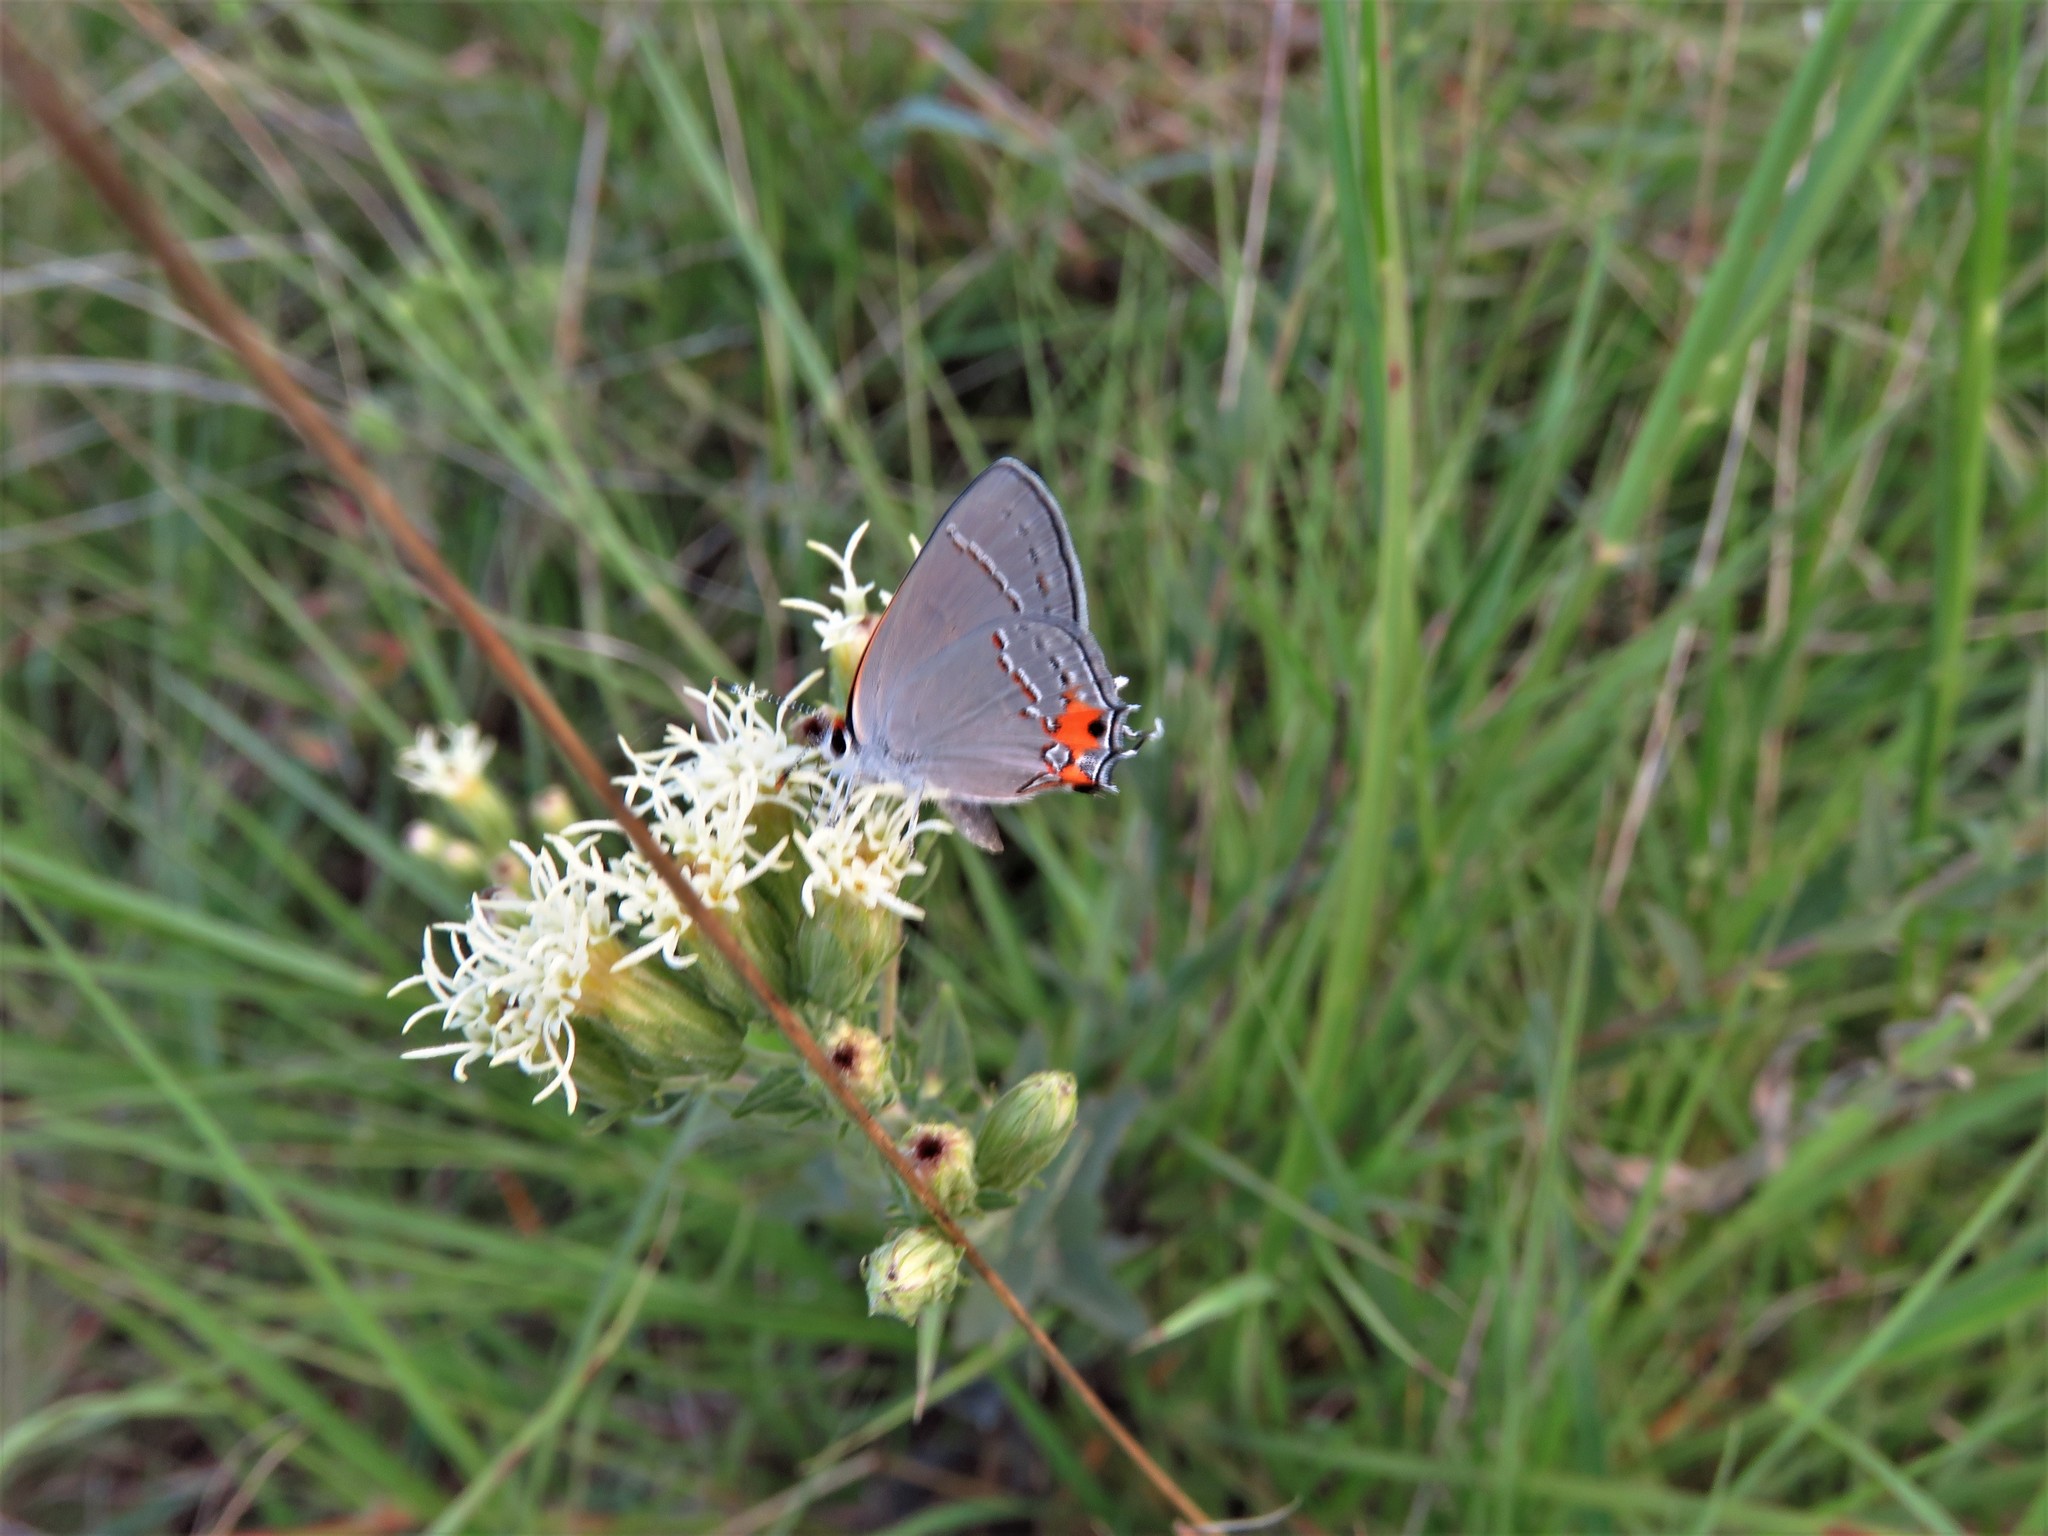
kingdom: Animalia
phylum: Arthropoda
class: Insecta
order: Lepidoptera
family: Lycaenidae
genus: Strymon
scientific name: Strymon melinus
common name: Gray hairstreak
